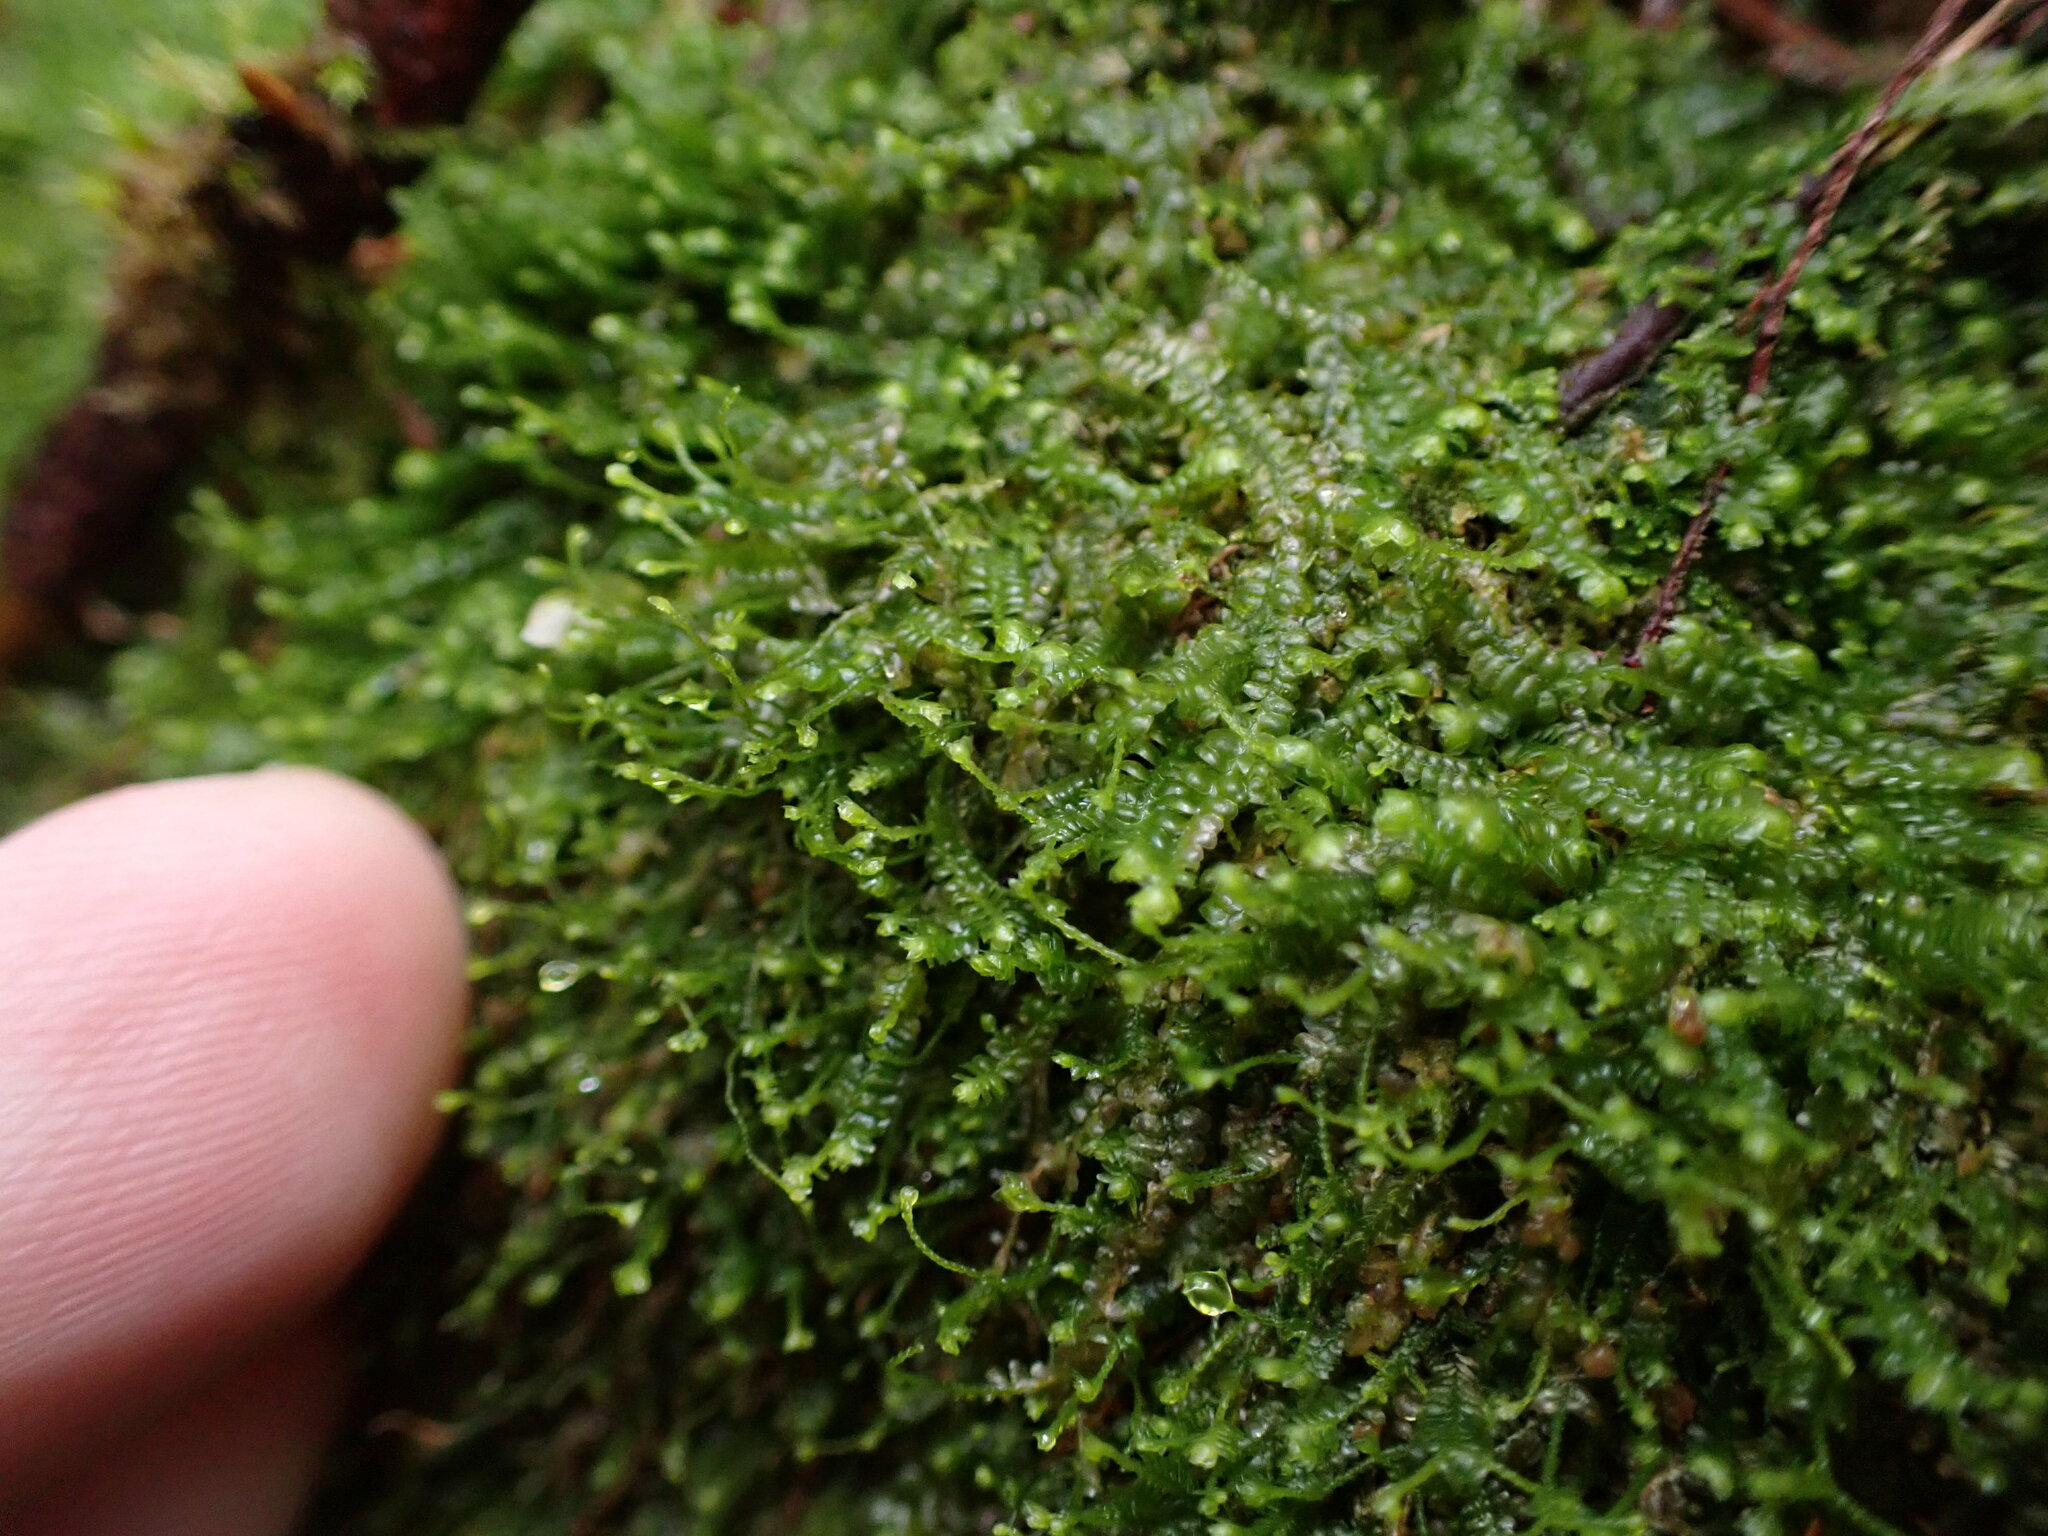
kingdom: Plantae
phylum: Marchantiophyta
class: Jungermanniopsida
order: Jungermanniales
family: Lepidoziaceae
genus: Bazzania
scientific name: Bazzania denudata
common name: Naked whipwort
